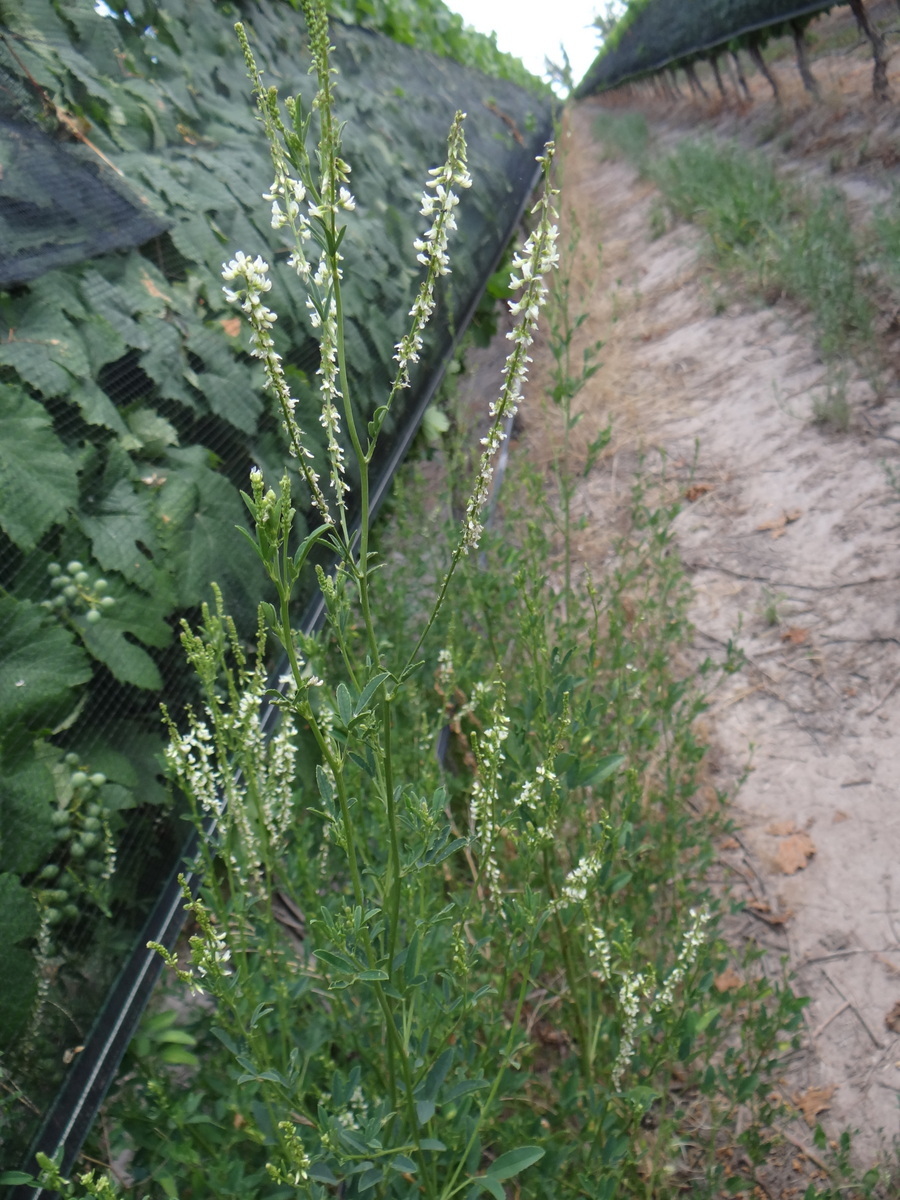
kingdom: Plantae
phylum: Tracheophyta
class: Magnoliopsida
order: Fabales
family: Fabaceae
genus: Melilotus
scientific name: Melilotus albus
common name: White melilot
